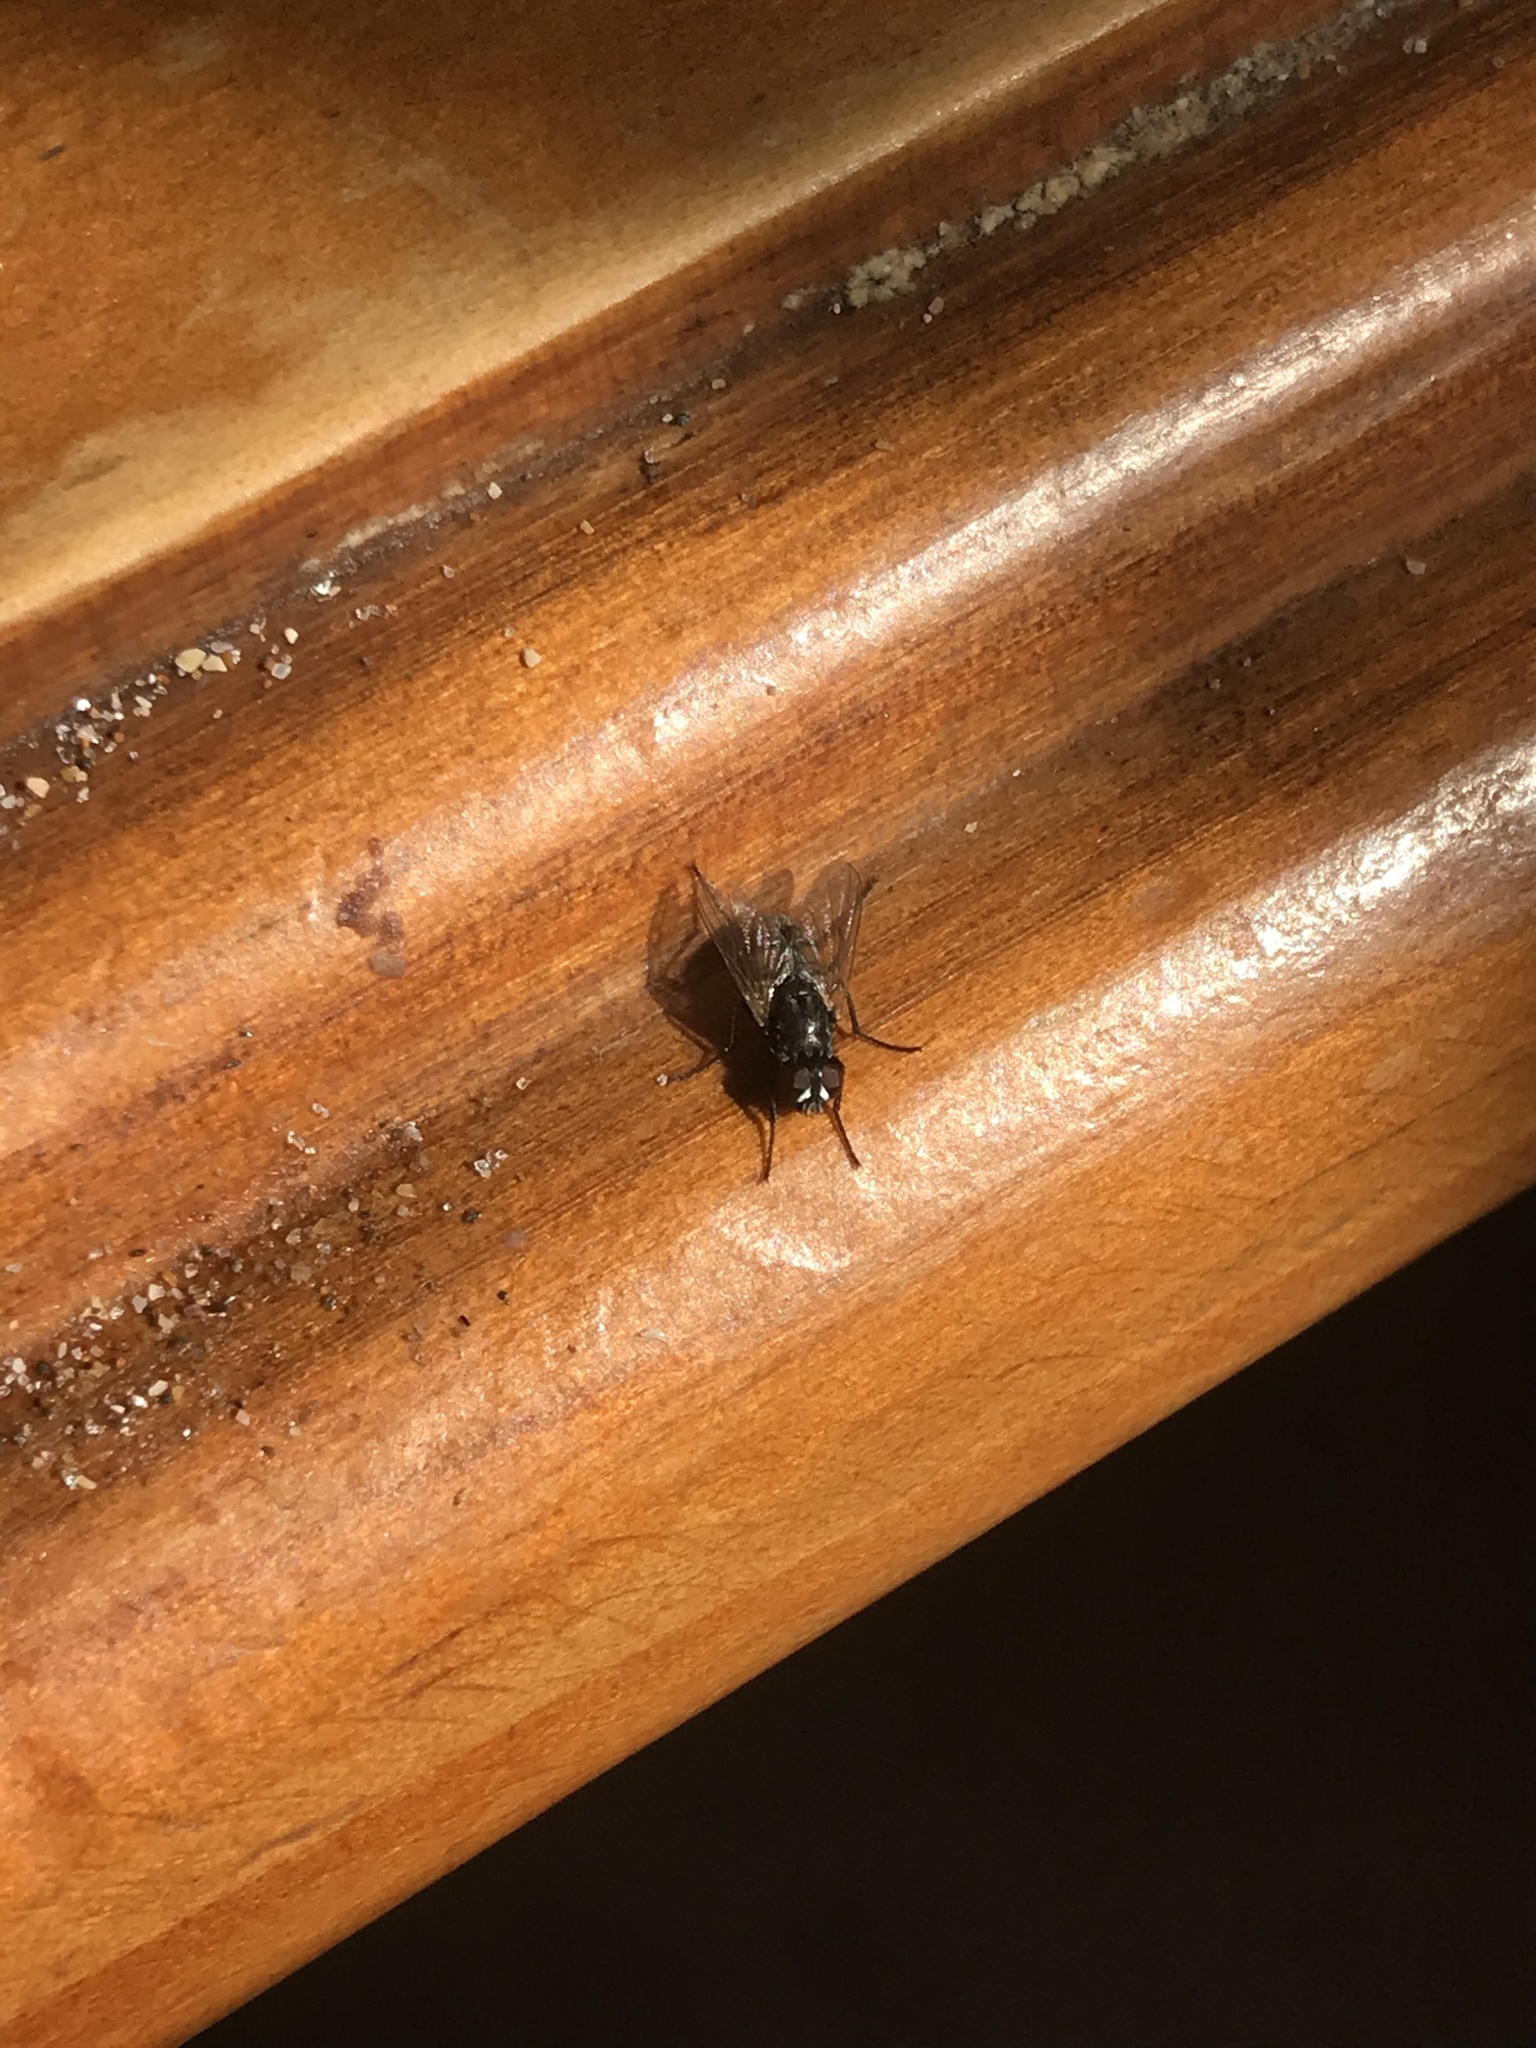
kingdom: Animalia
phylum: Arthropoda
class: Insecta
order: Diptera
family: Muscidae
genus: Musca
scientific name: Musca domestica
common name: House fly
